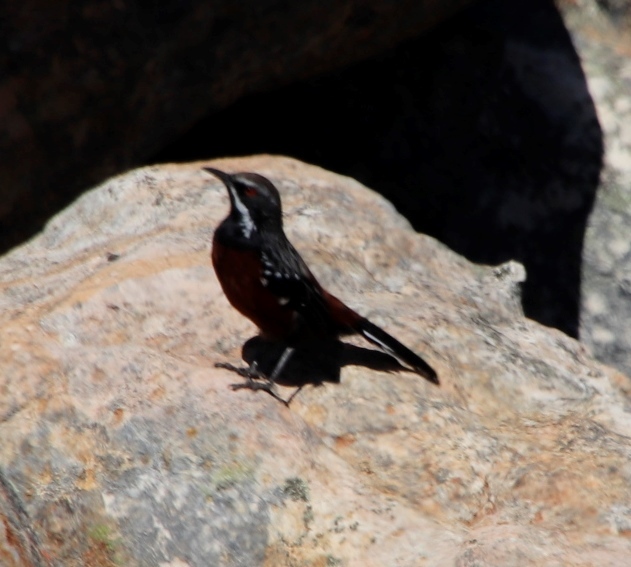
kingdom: Animalia
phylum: Chordata
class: Aves
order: Passeriformes
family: Chaetopidae
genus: Chaetops
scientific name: Chaetops frenatus
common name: Cape rockjumper
